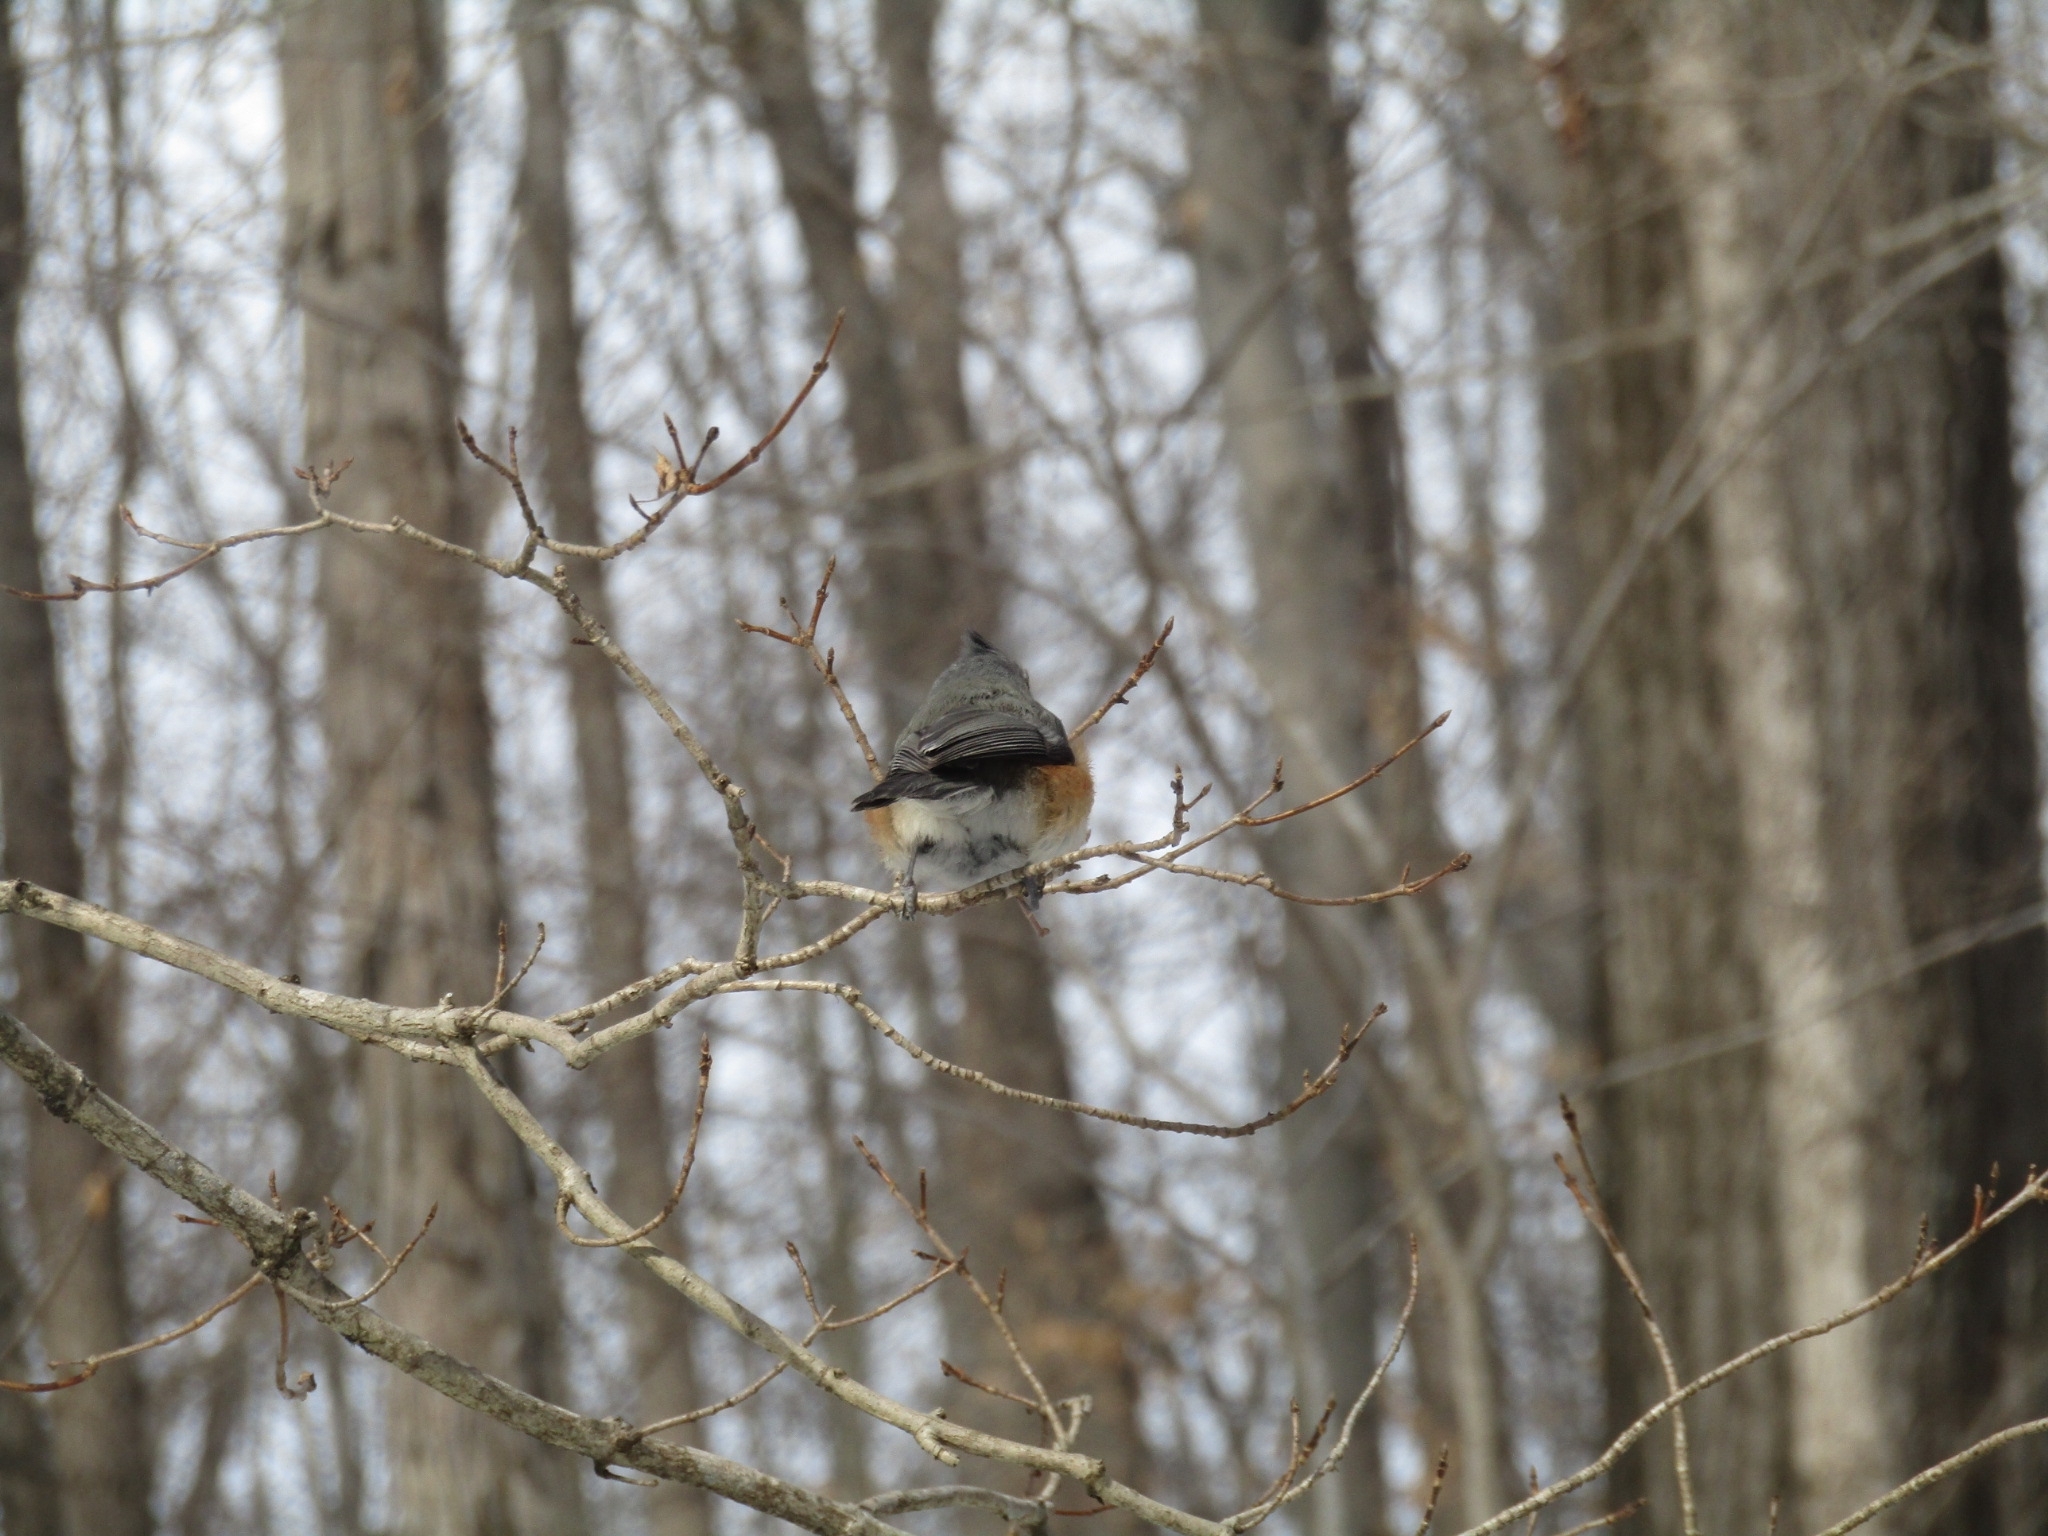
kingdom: Animalia
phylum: Chordata
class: Aves
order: Passeriformes
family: Paridae
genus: Baeolophus
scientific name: Baeolophus bicolor
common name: Tufted titmouse
